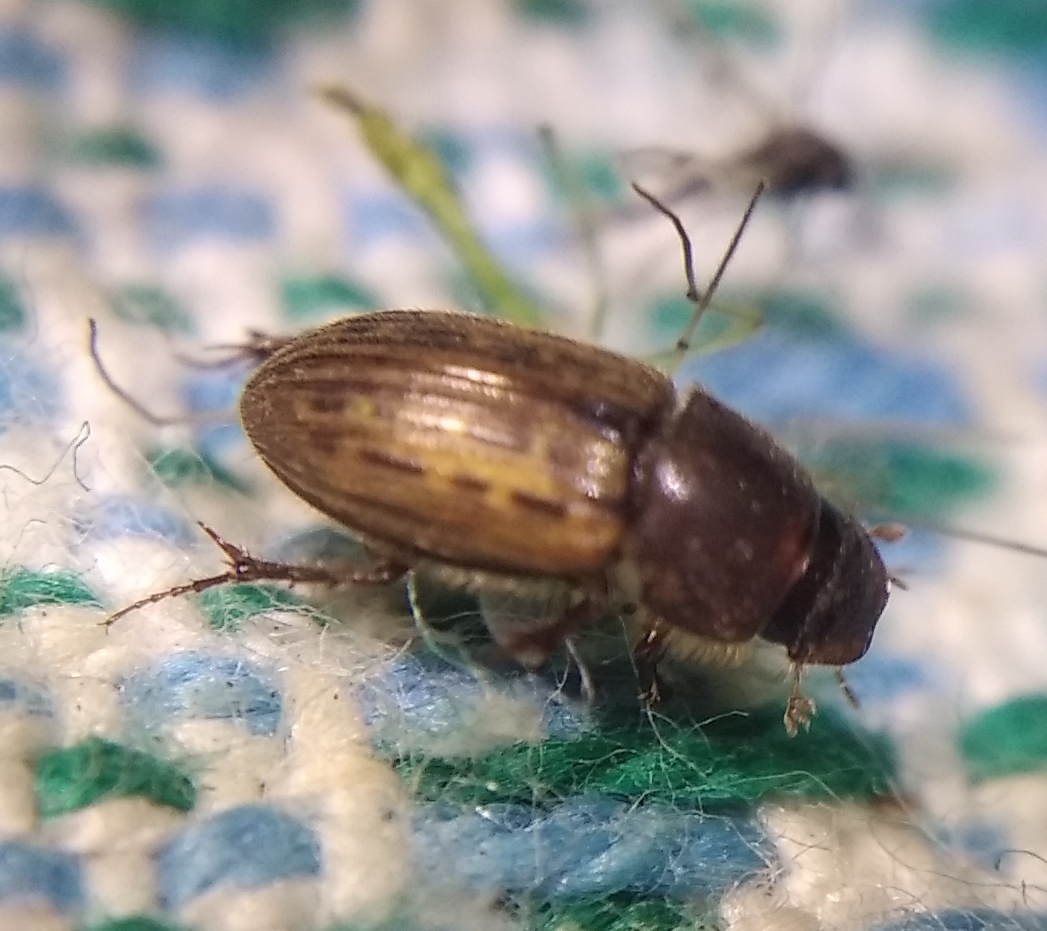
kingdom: Animalia
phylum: Arthropoda
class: Insecta
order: Coleoptera
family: Scarabaeidae
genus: Euheptaulacus
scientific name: Euheptaulacus sus
